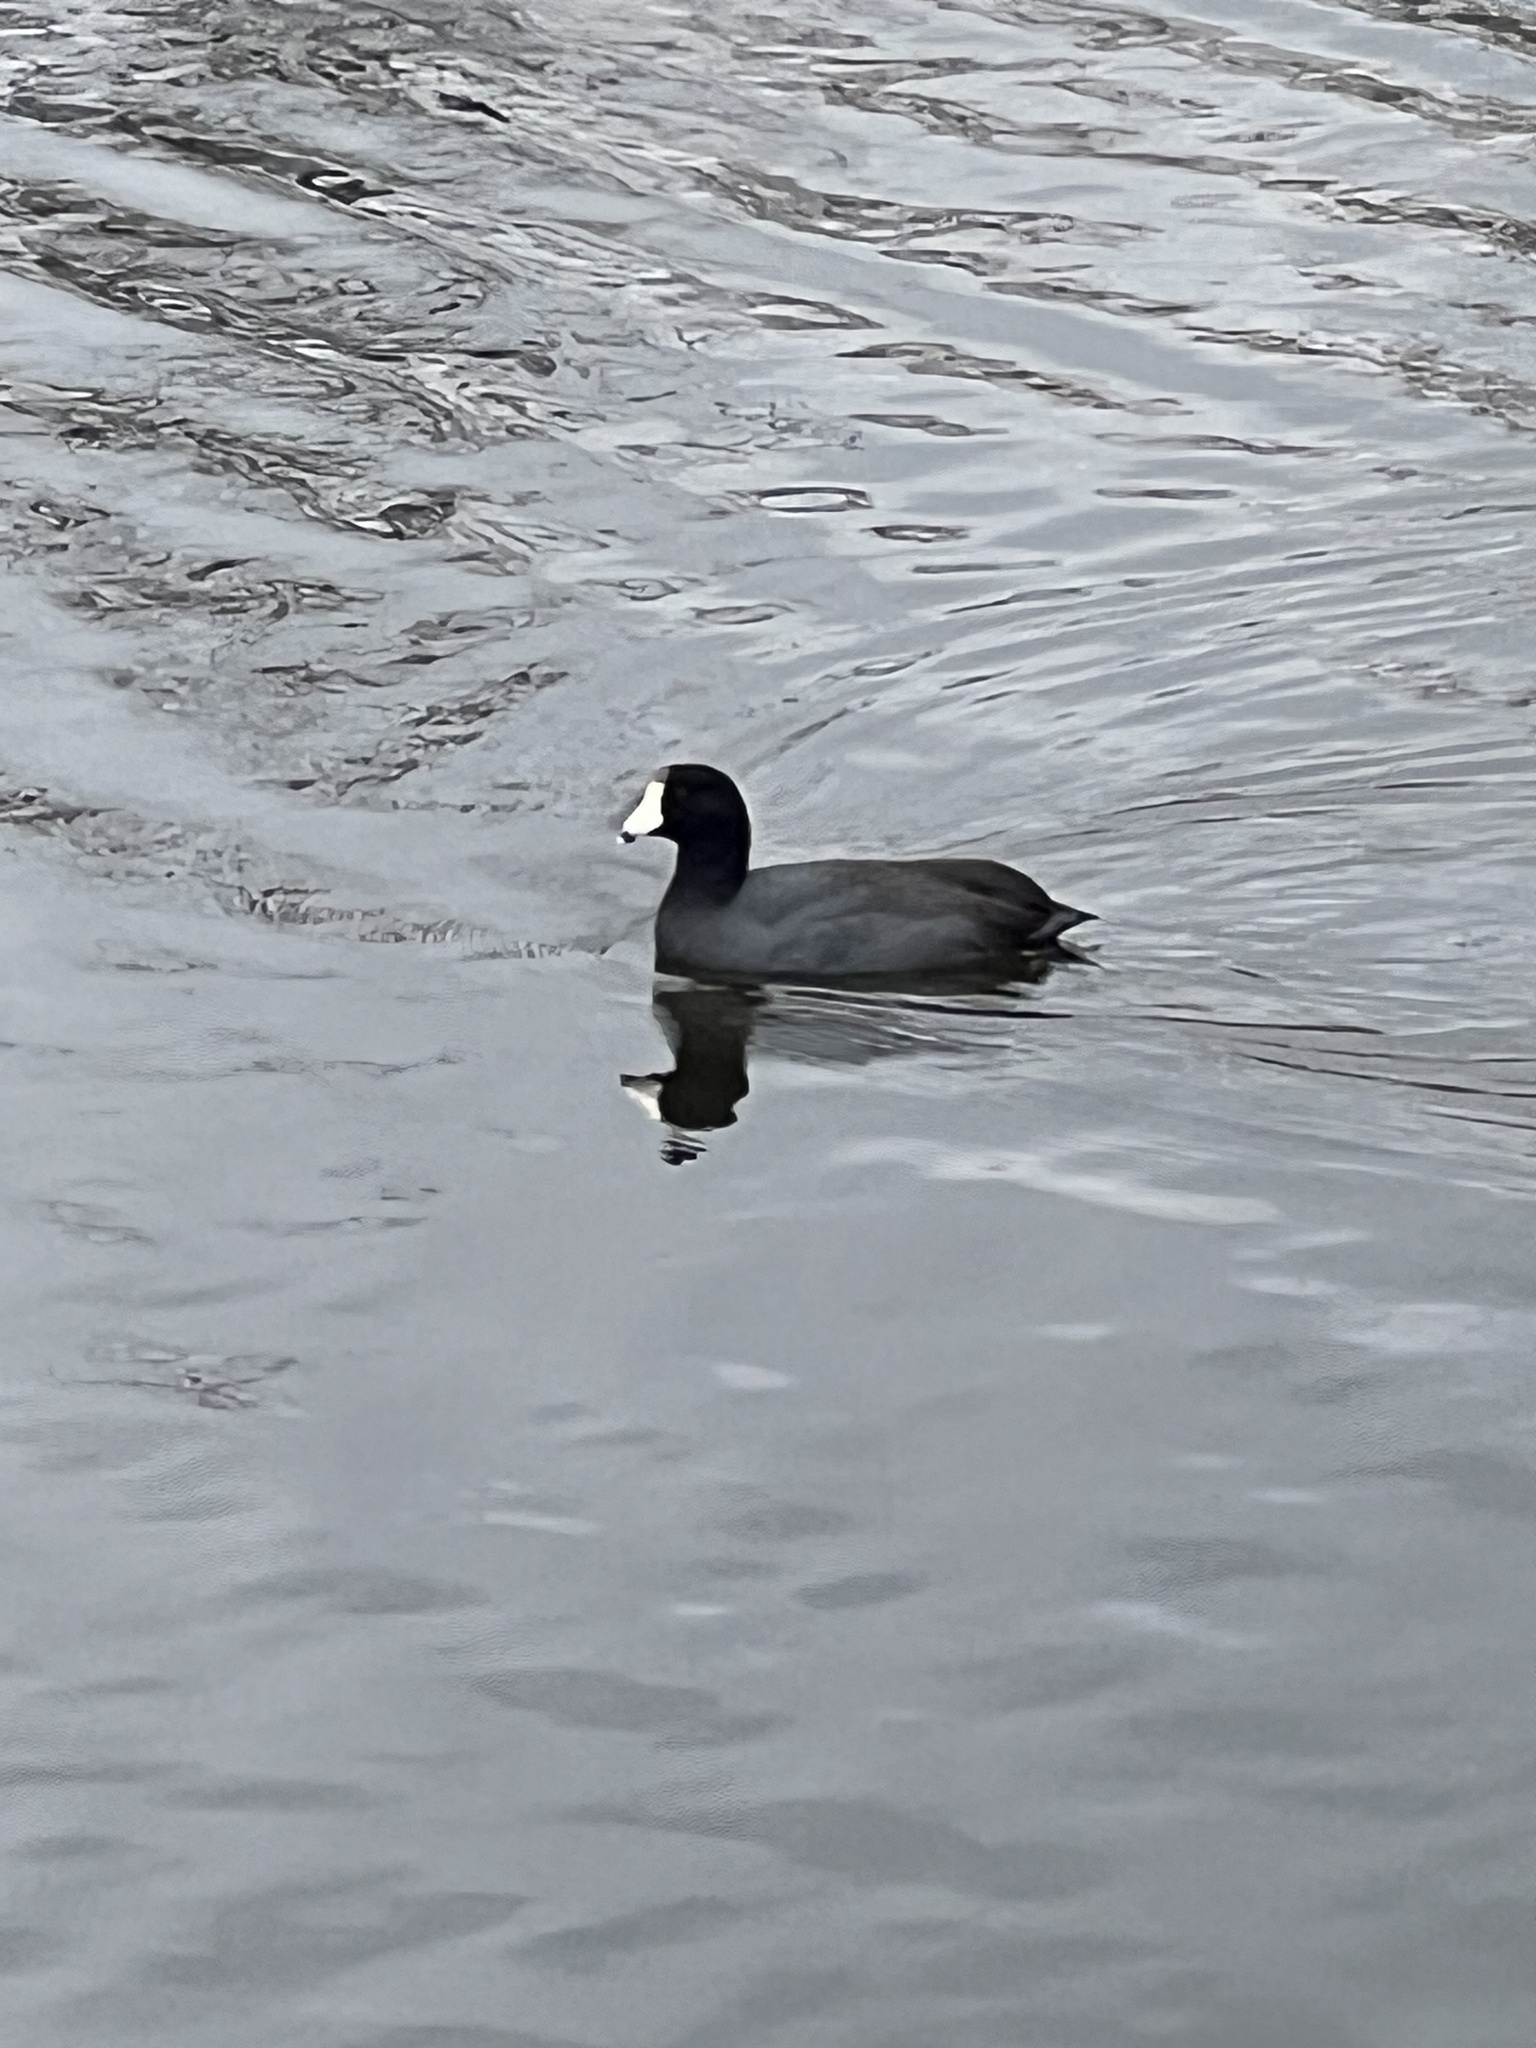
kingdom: Animalia
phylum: Chordata
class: Aves
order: Gruiformes
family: Rallidae
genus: Fulica
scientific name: Fulica americana
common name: American coot
